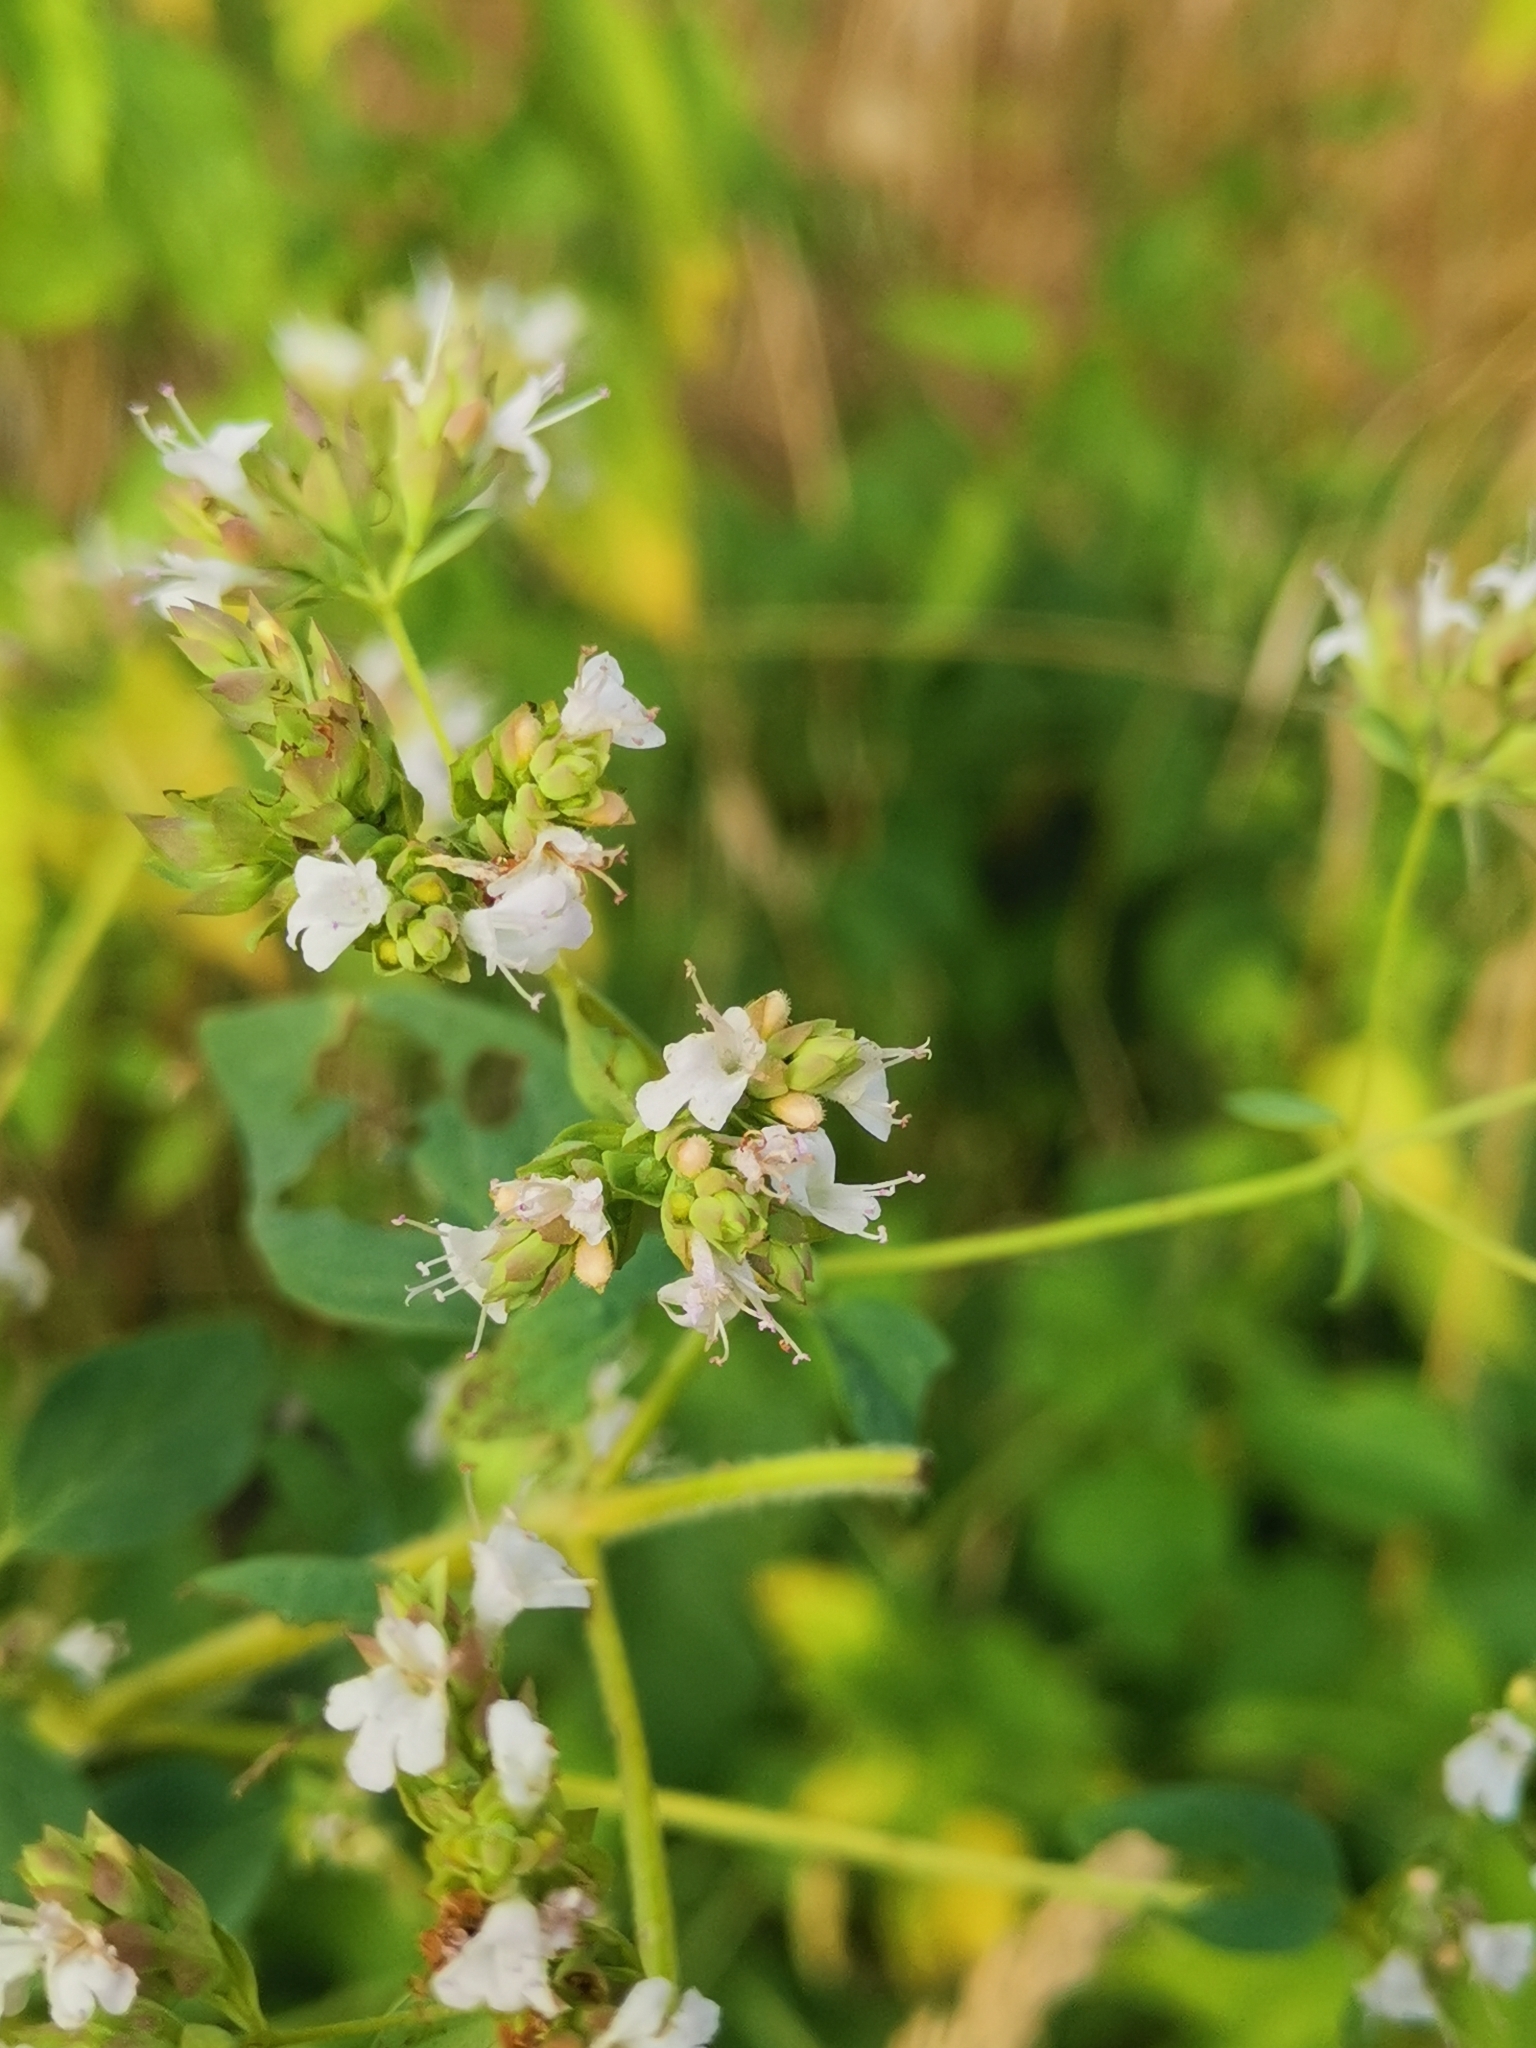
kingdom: Plantae
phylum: Tracheophyta
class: Magnoliopsida
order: Lamiales
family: Lamiaceae
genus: Origanum
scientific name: Origanum vulgare
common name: Wild marjoram
